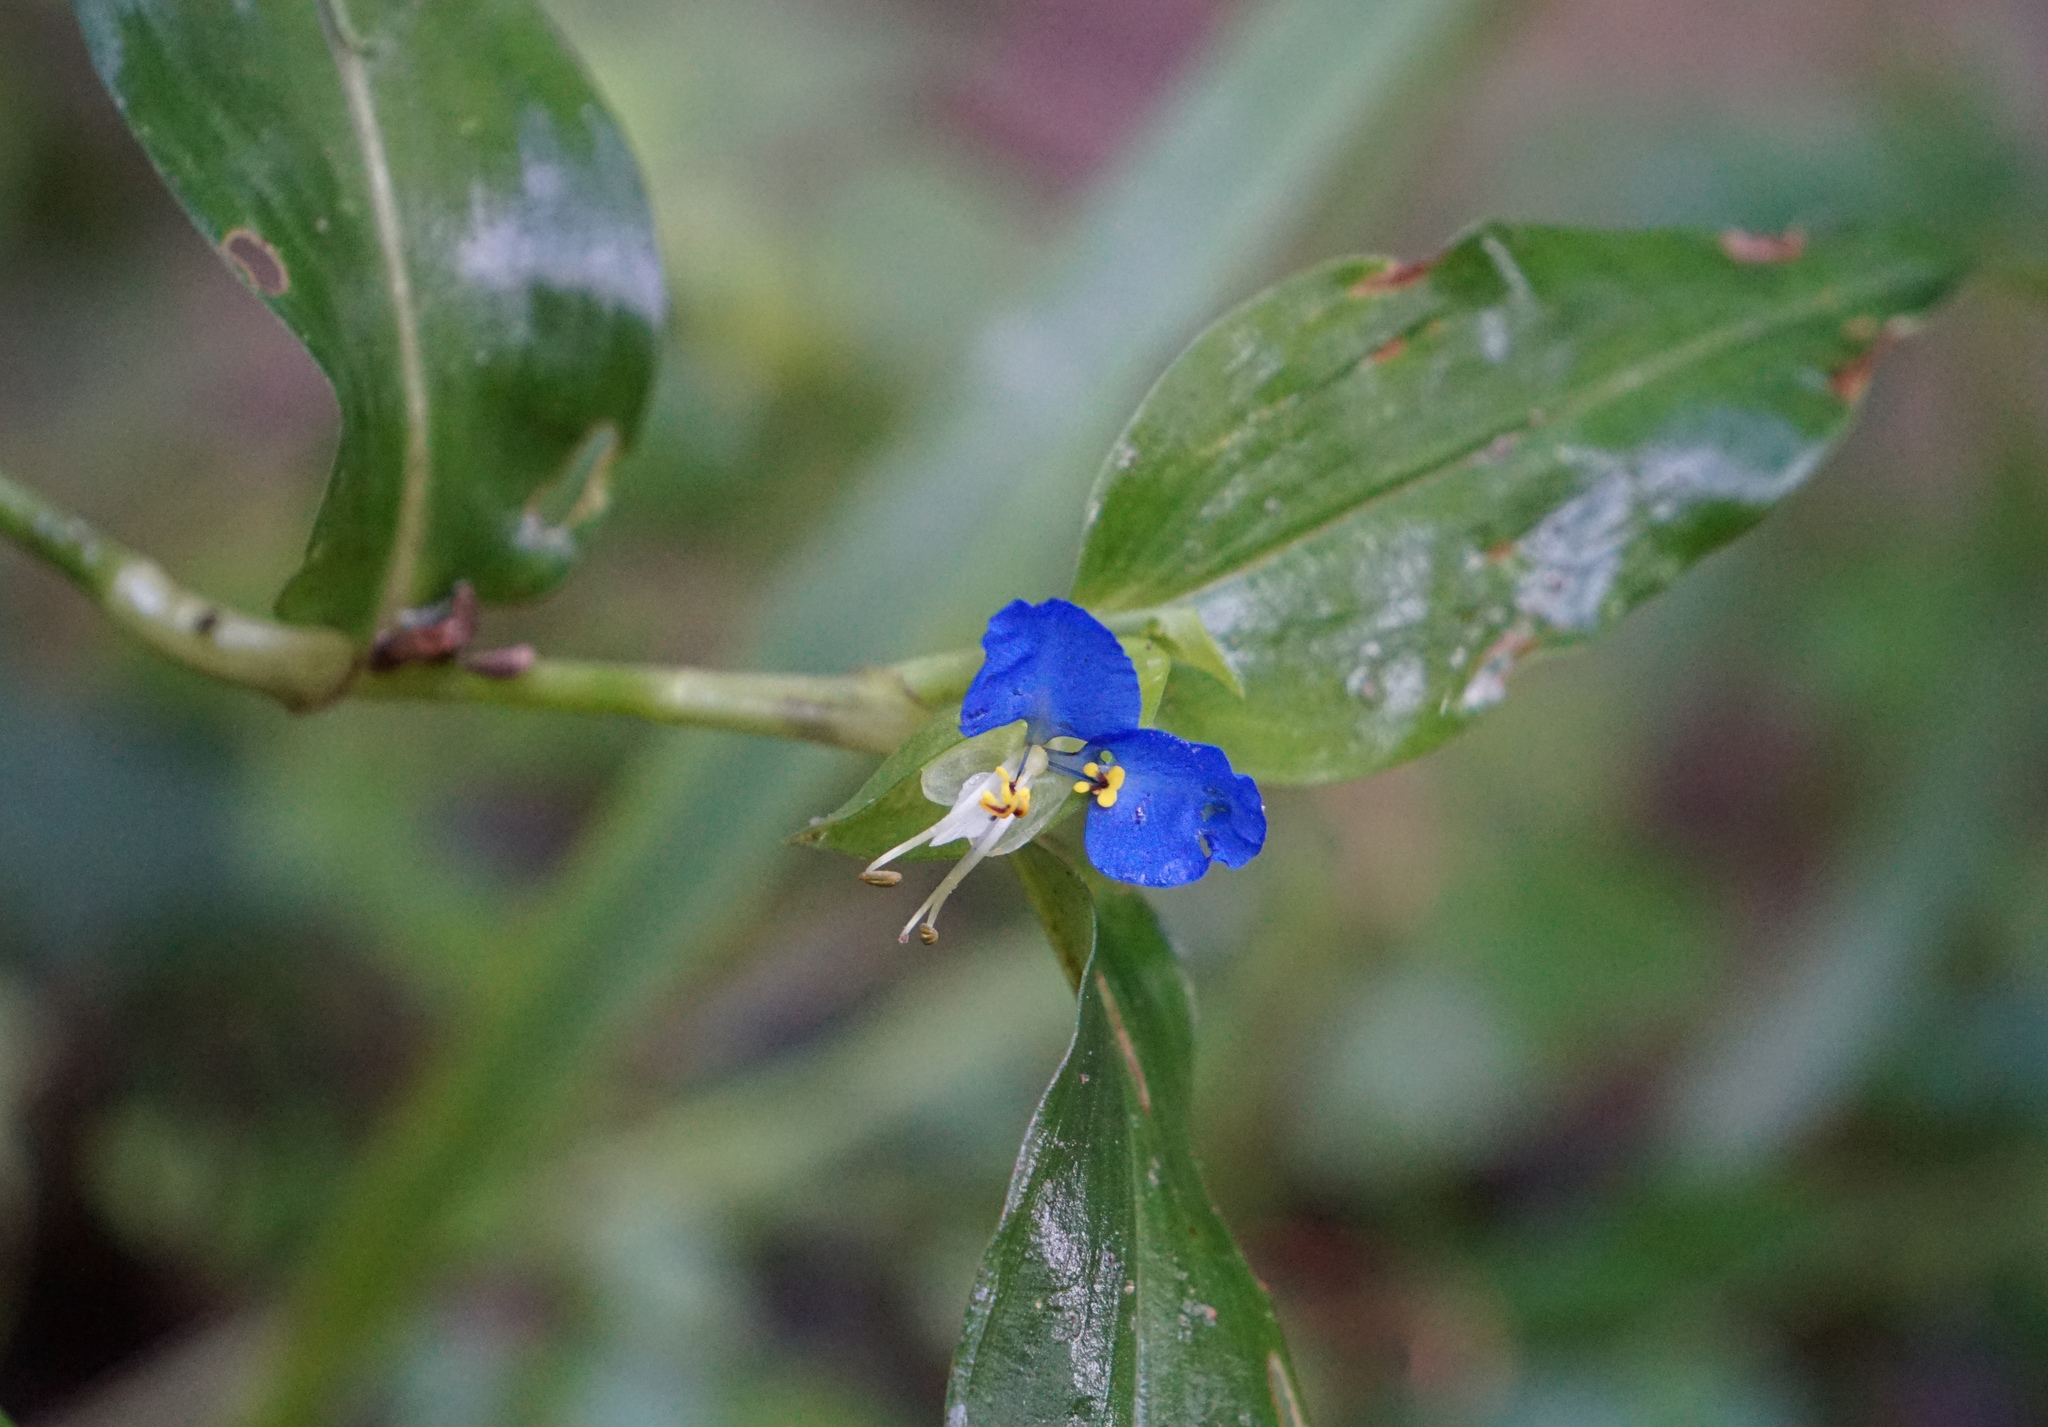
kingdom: Plantae
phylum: Tracheophyta
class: Liliopsida
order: Commelinales
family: Commelinaceae
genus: Commelina
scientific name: Commelina communis
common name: Asiatic dayflower
